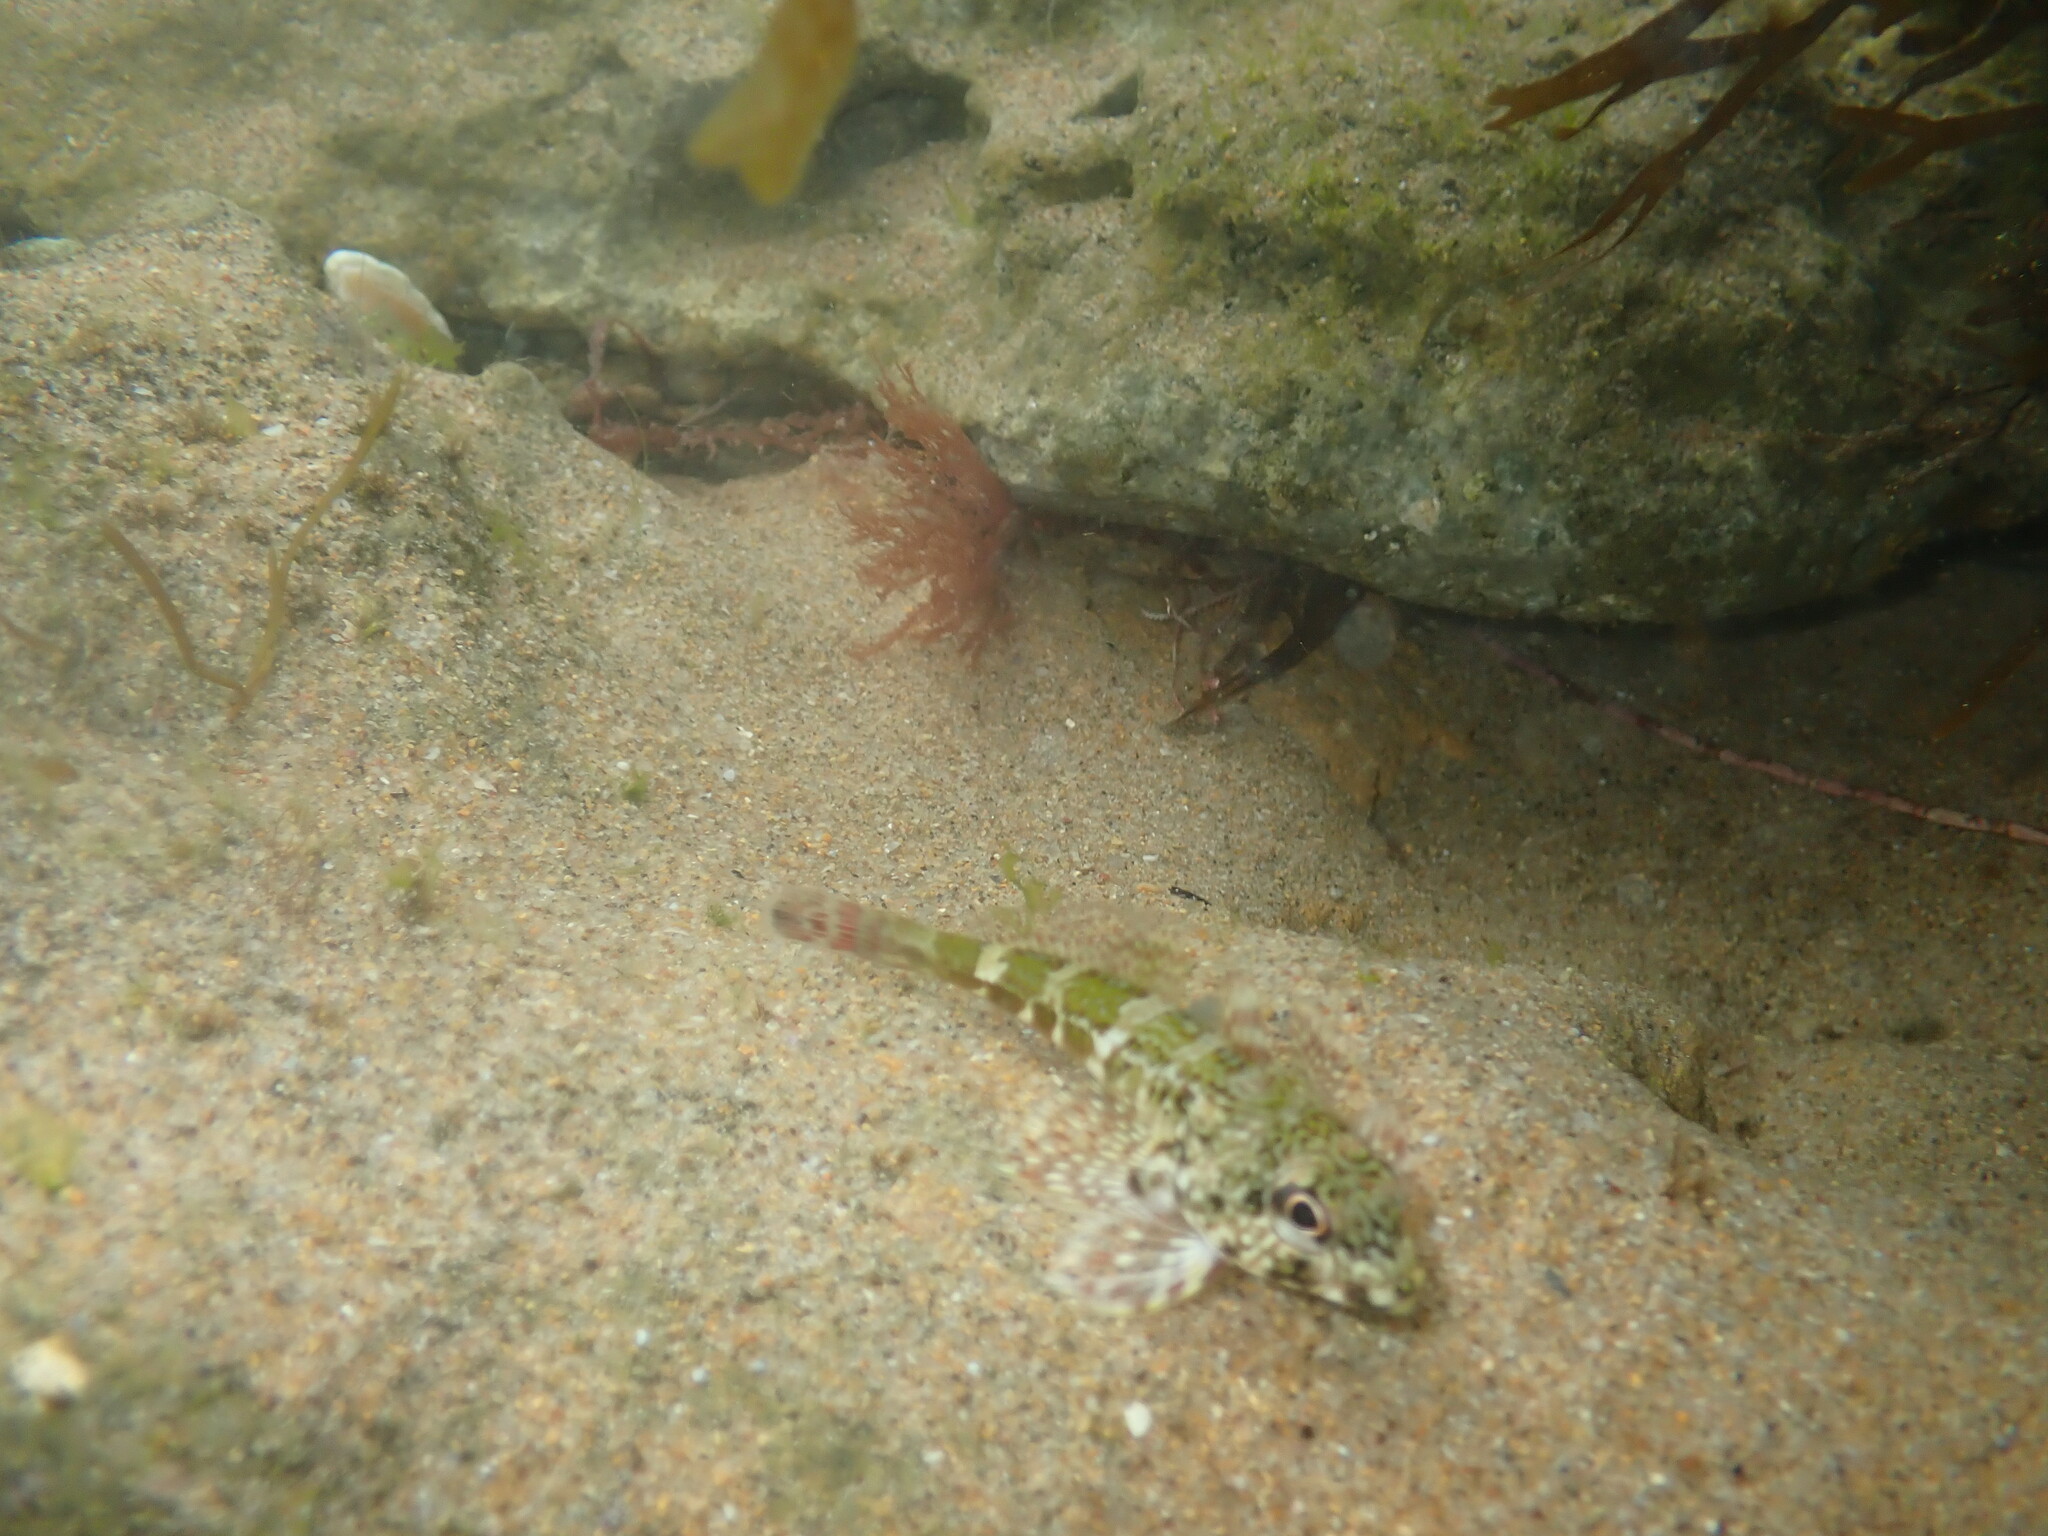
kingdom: Animalia
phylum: Chordata
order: Perciformes
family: Bovichtidae
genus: Bovichtus
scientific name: Bovichtus angustifrons
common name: Dragonet
